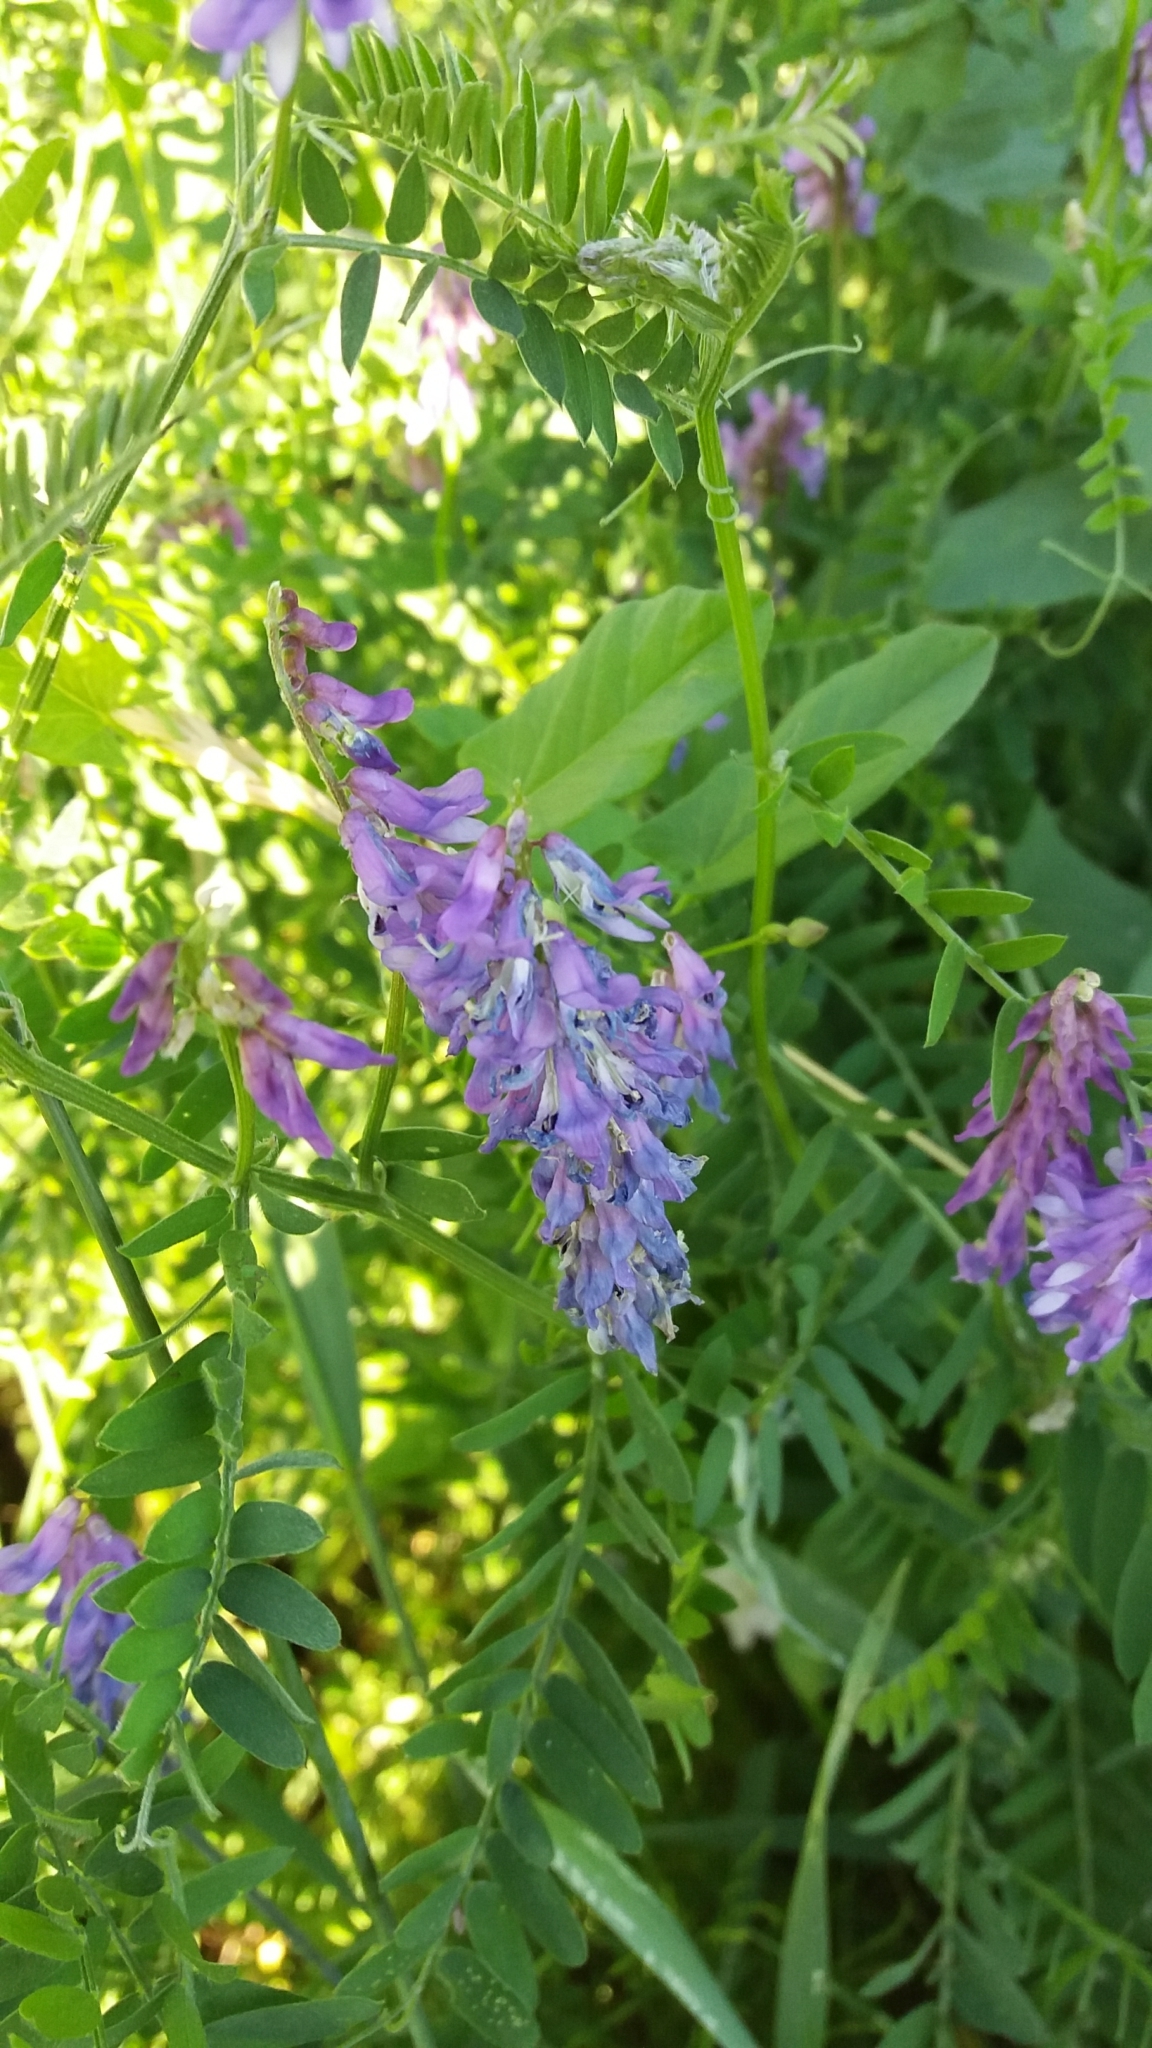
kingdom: Plantae
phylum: Tracheophyta
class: Magnoliopsida
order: Fabales
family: Fabaceae
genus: Vicia
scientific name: Vicia cracca
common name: Bird vetch
